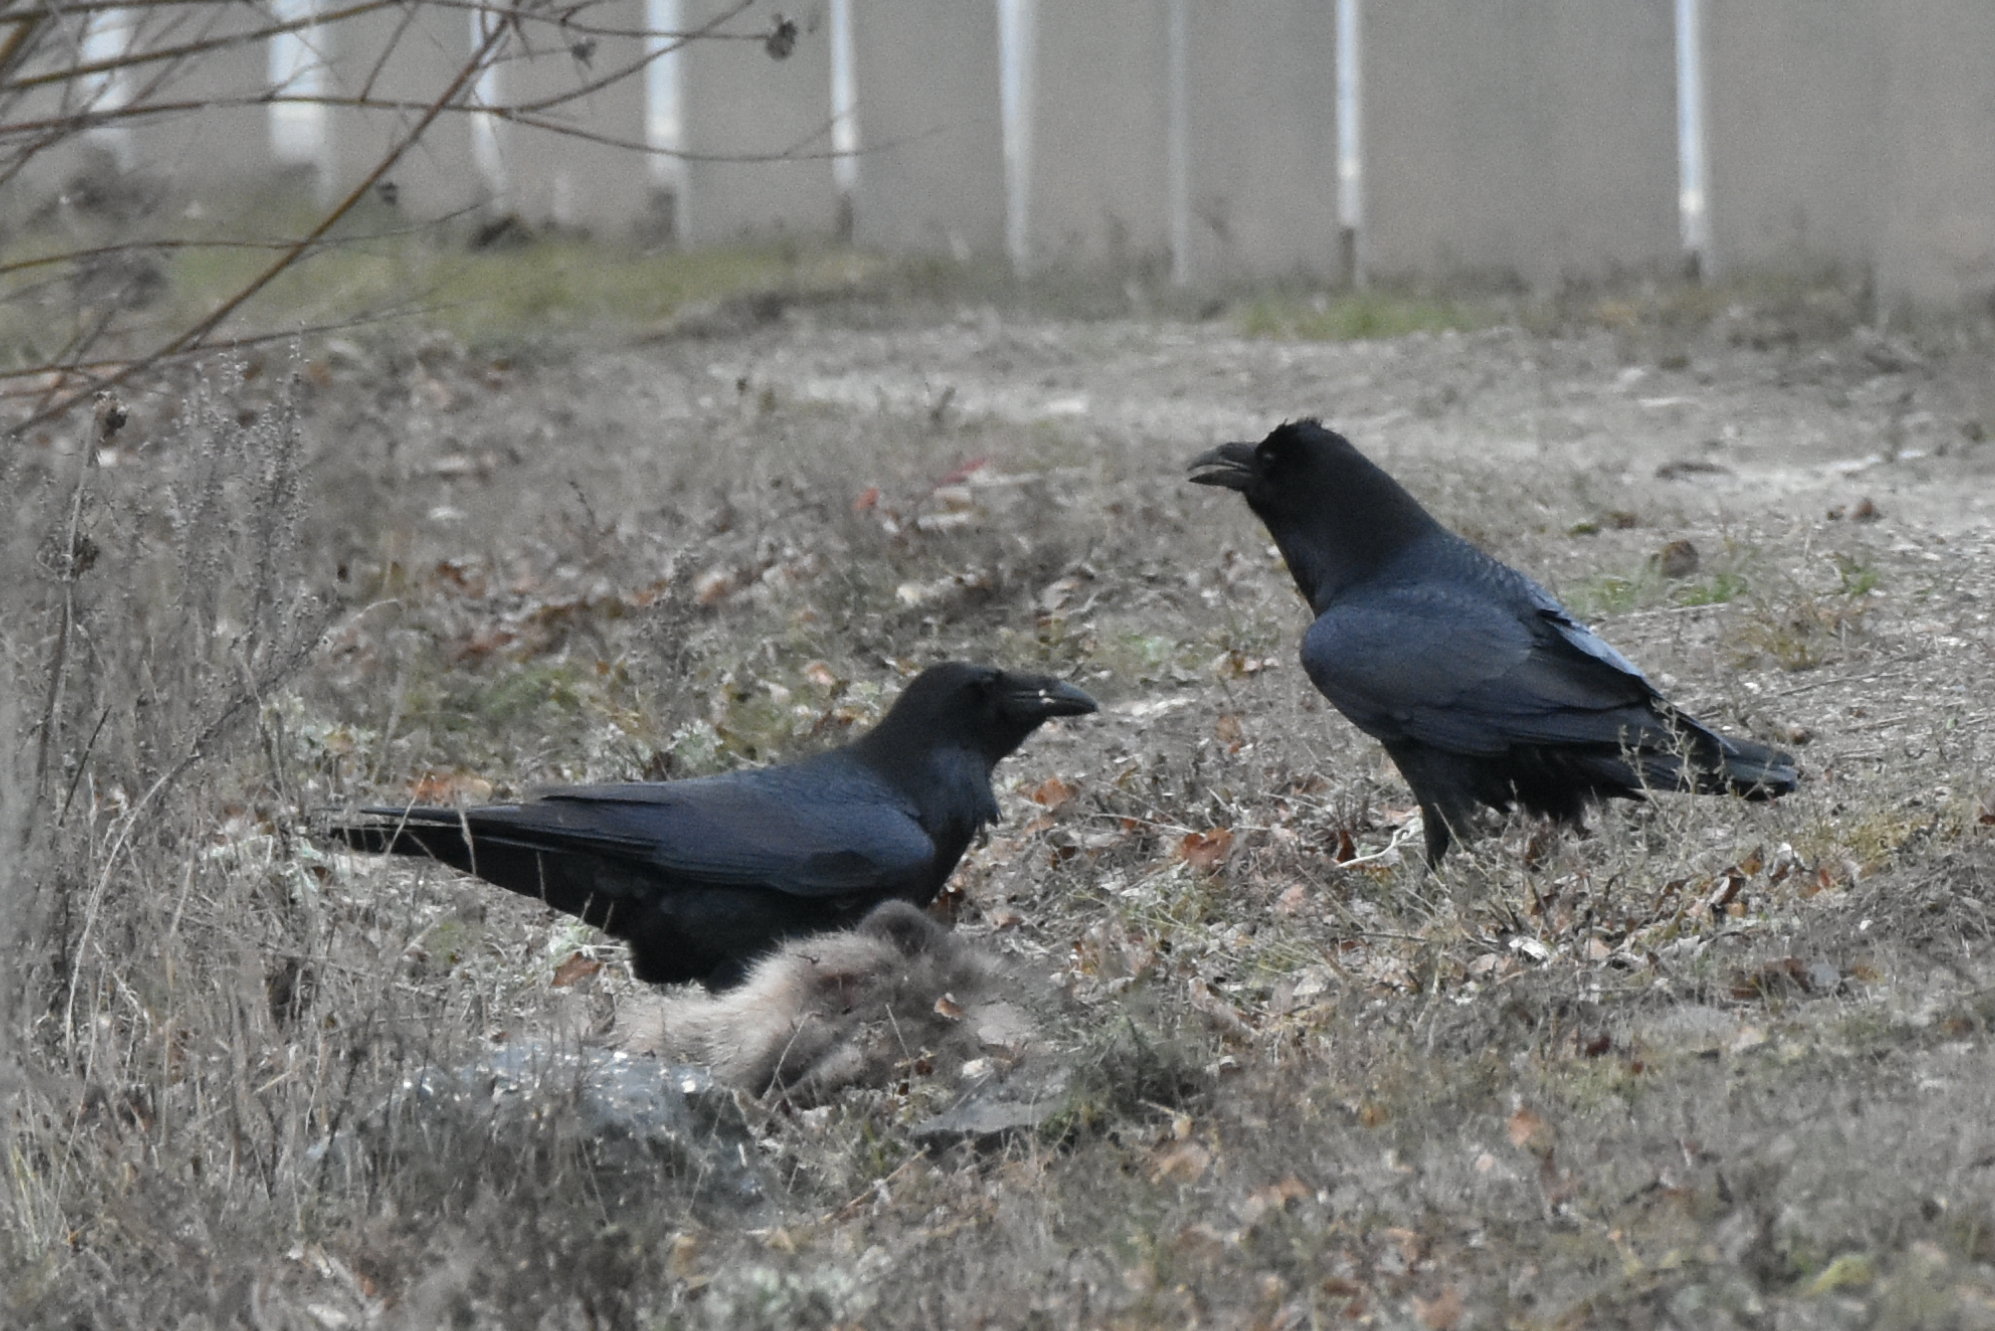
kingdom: Animalia
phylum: Chordata
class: Aves
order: Passeriformes
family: Corvidae
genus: Corvus
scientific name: Corvus corax
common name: Common raven
